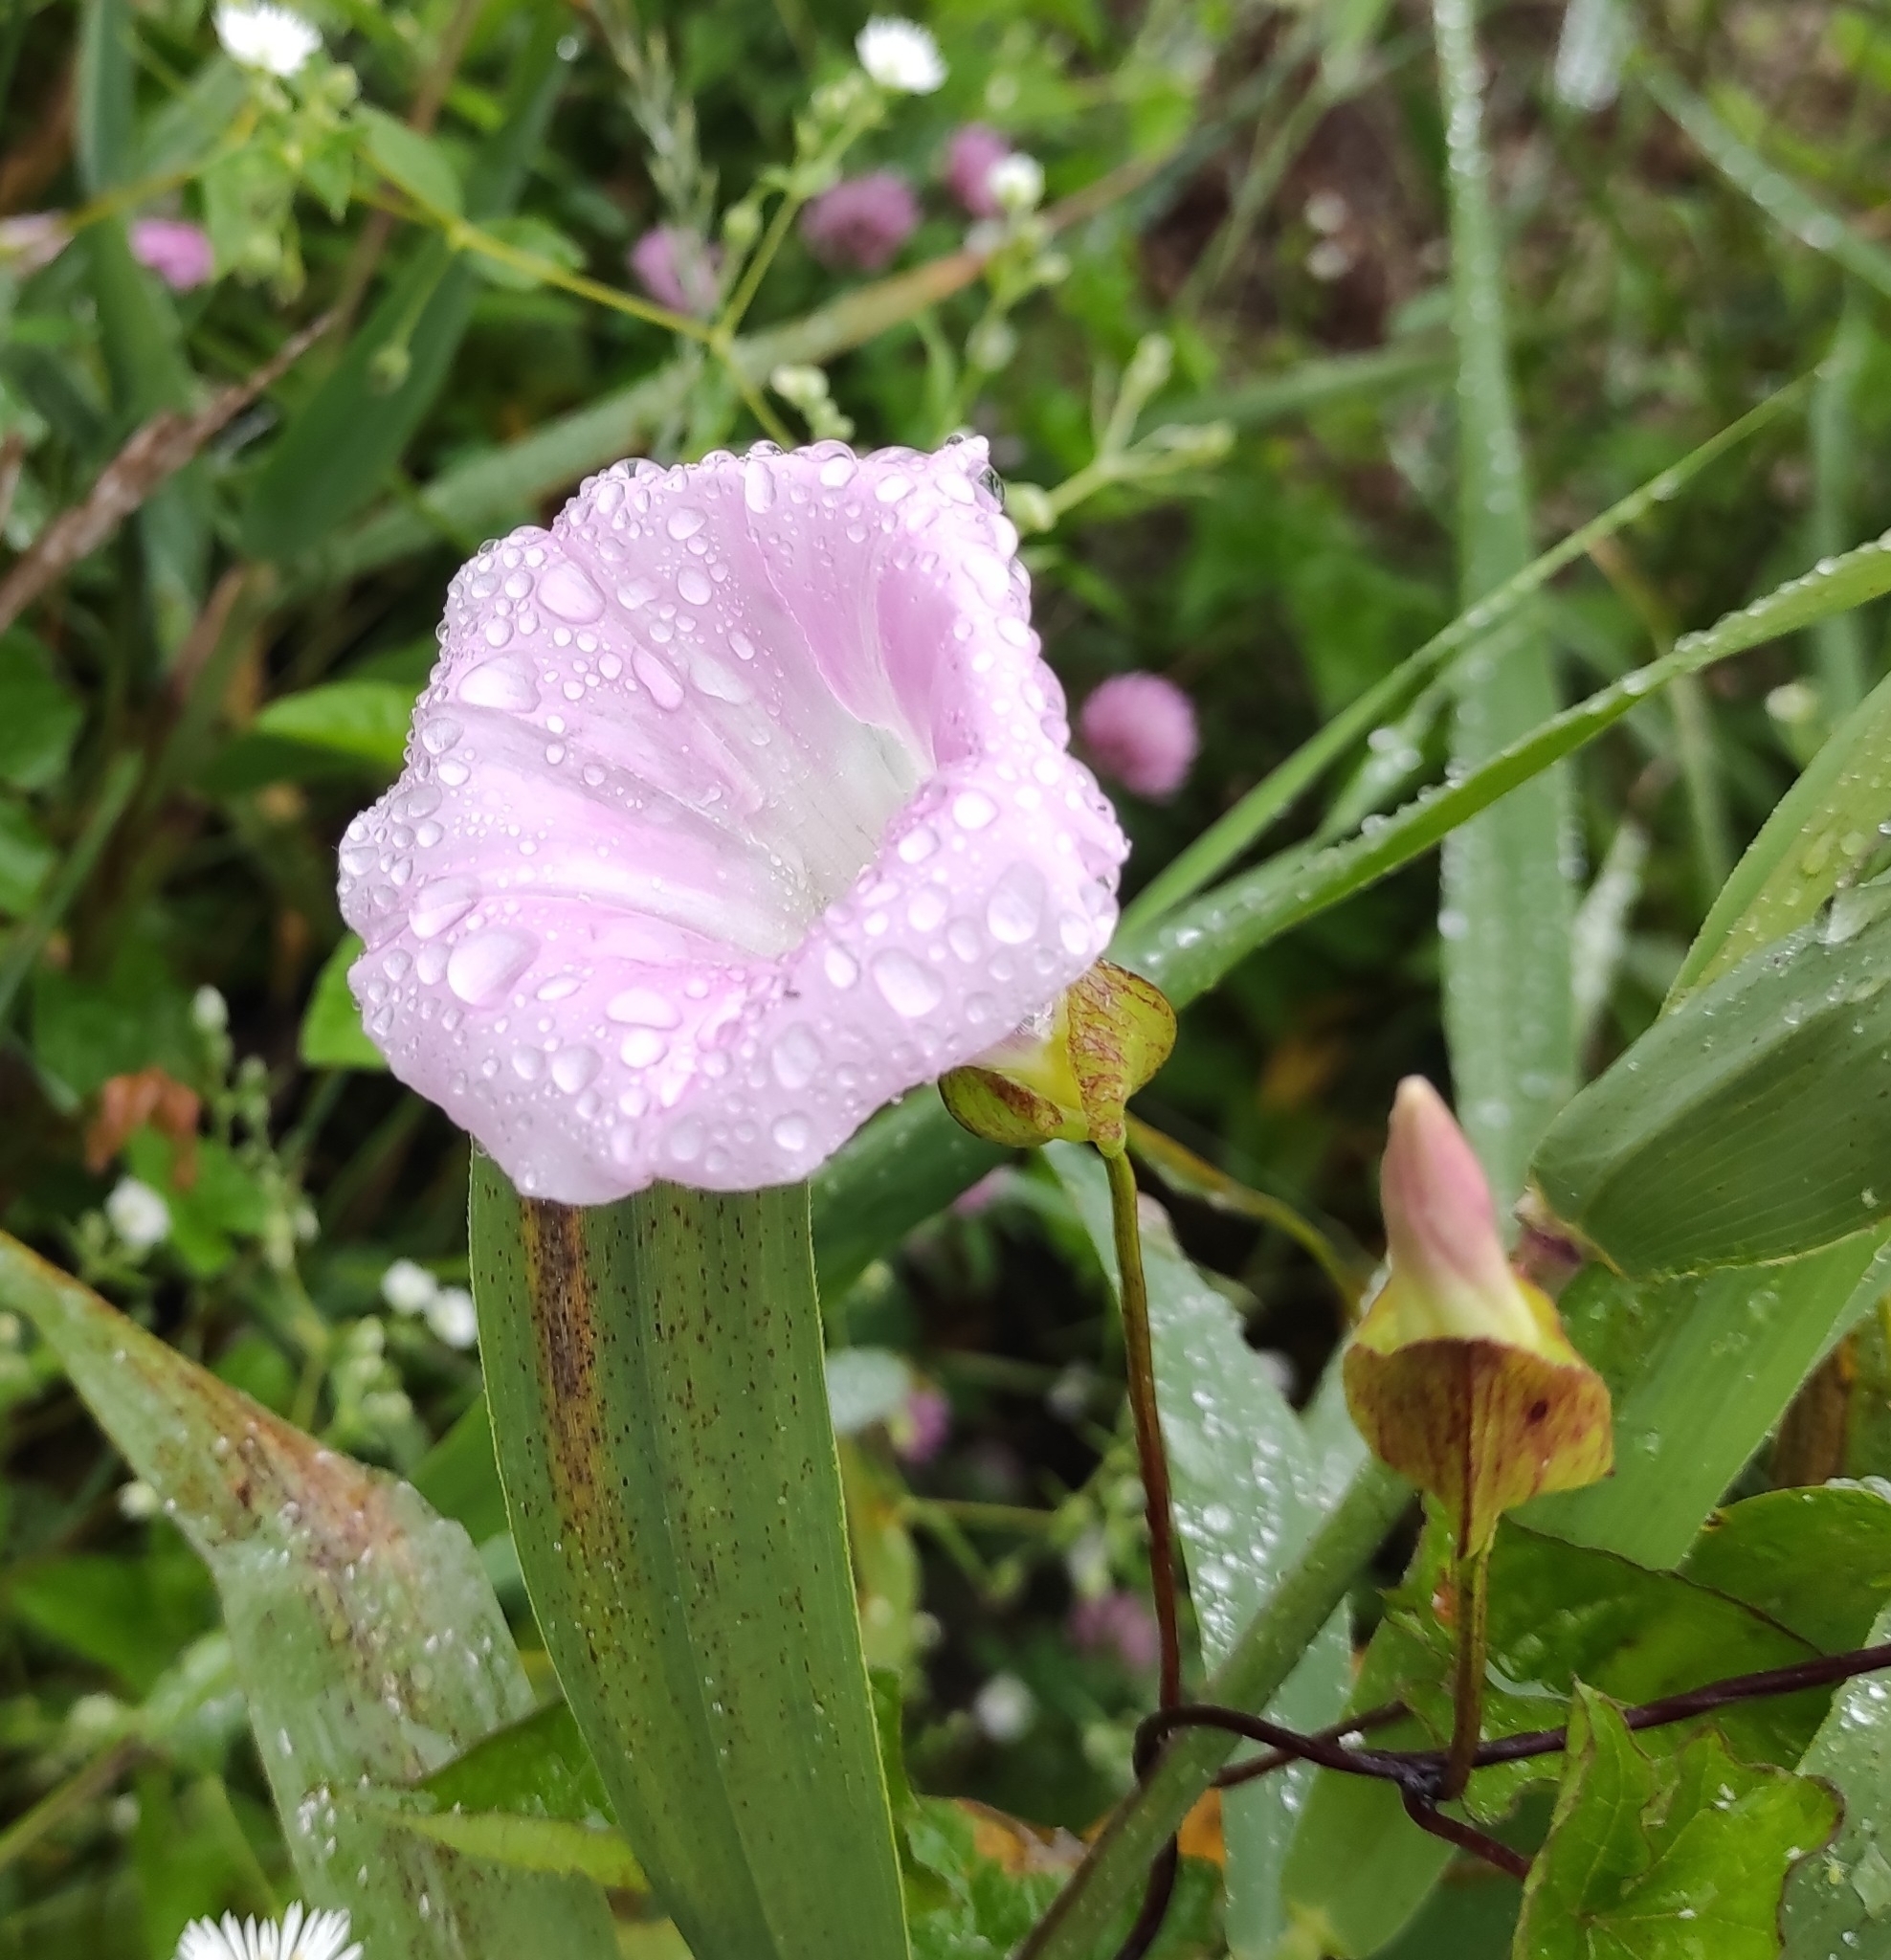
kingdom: Plantae
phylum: Tracheophyta
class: Magnoliopsida
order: Solanales
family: Convolvulaceae
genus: Calystegia
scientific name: Calystegia sepium
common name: Hedge bindweed
